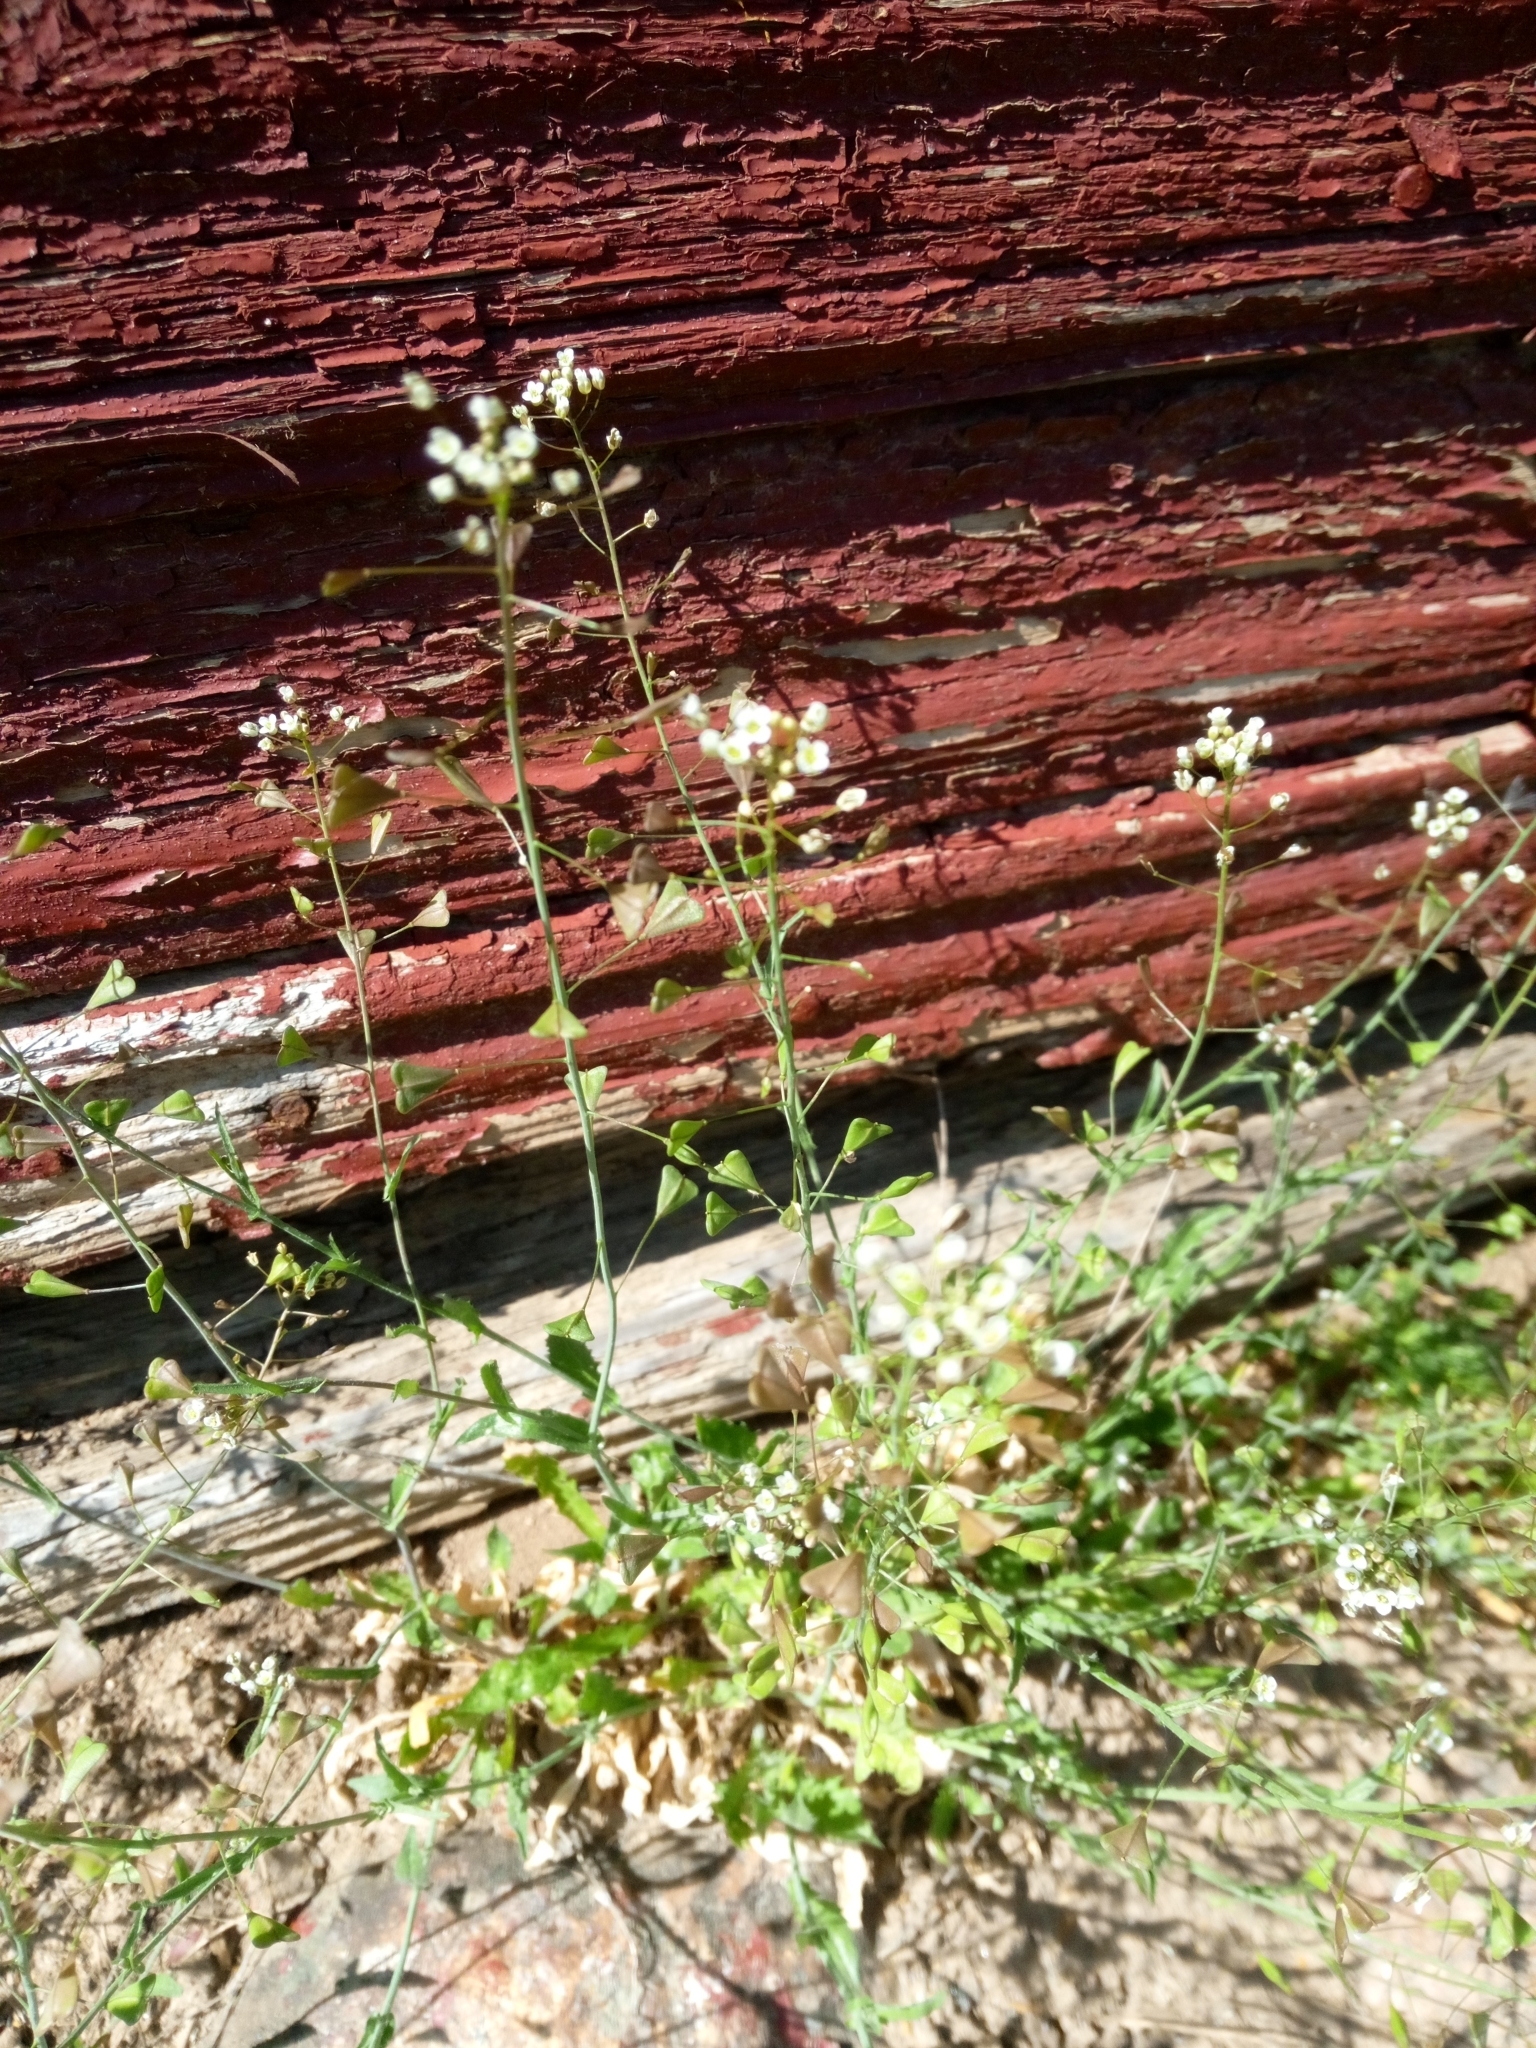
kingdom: Plantae
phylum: Tracheophyta
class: Magnoliopsida
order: Brassicales
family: Brassicaceae
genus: Capsella
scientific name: Capsella bursa-pastoris
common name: Shepherd's purse
